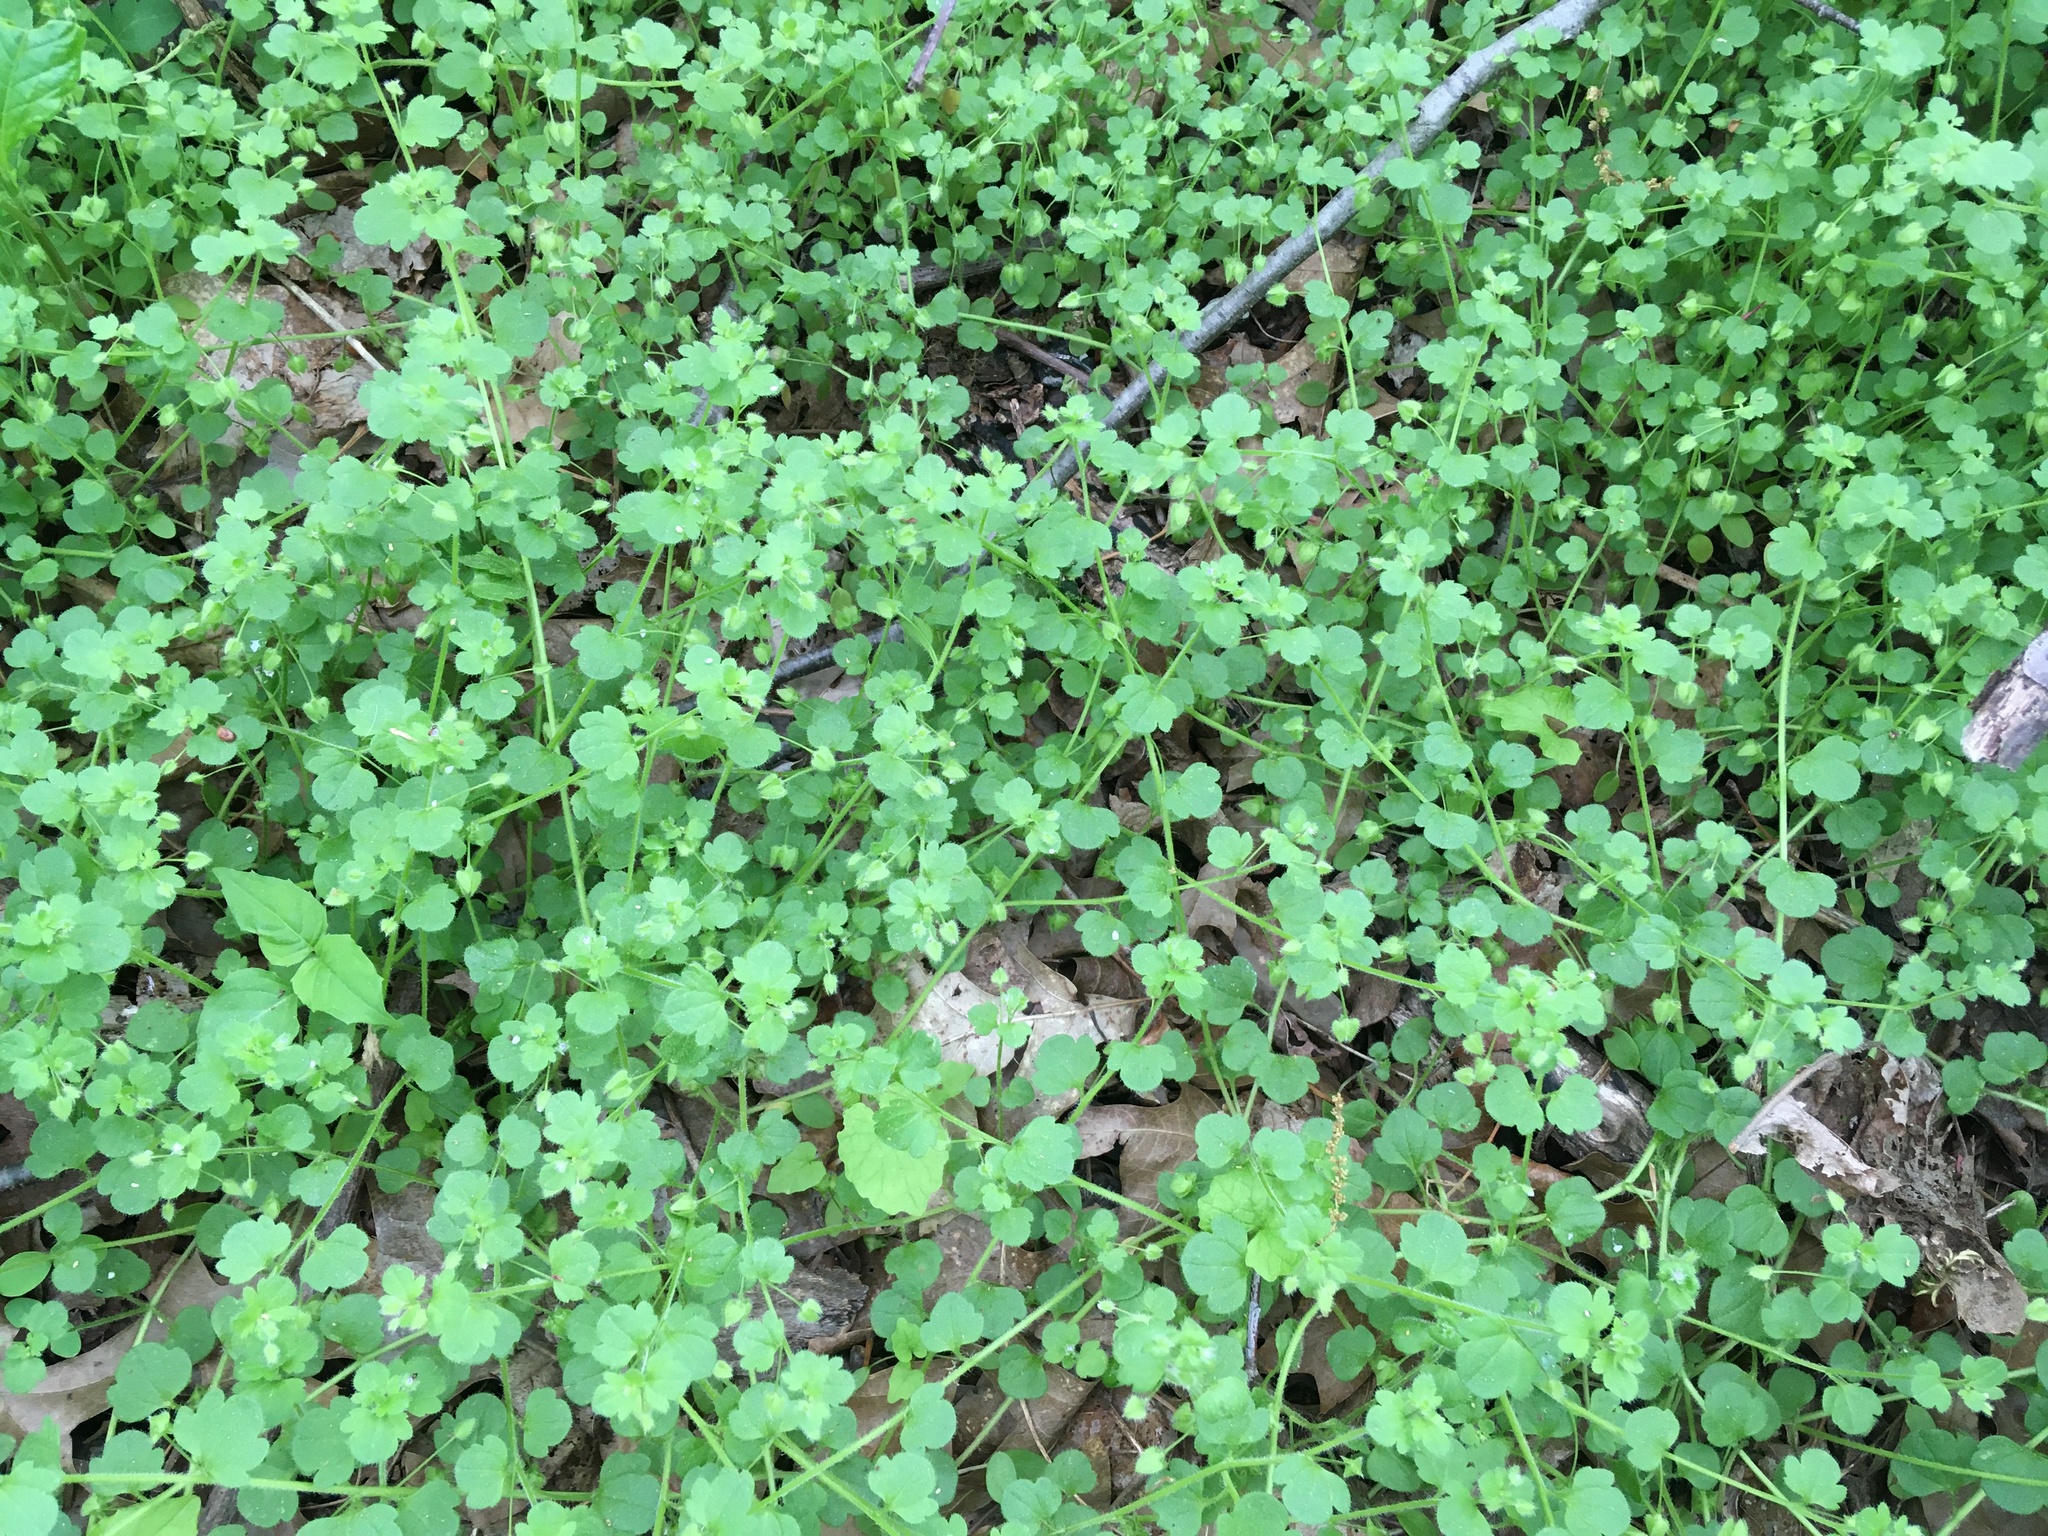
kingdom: Plantae
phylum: Tracheophyta
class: Magnoliopsida
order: Lamiales
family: Plantaginaceae
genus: Veronica
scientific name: Veronica hederifolia
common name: Ivy-leaved speedwell
